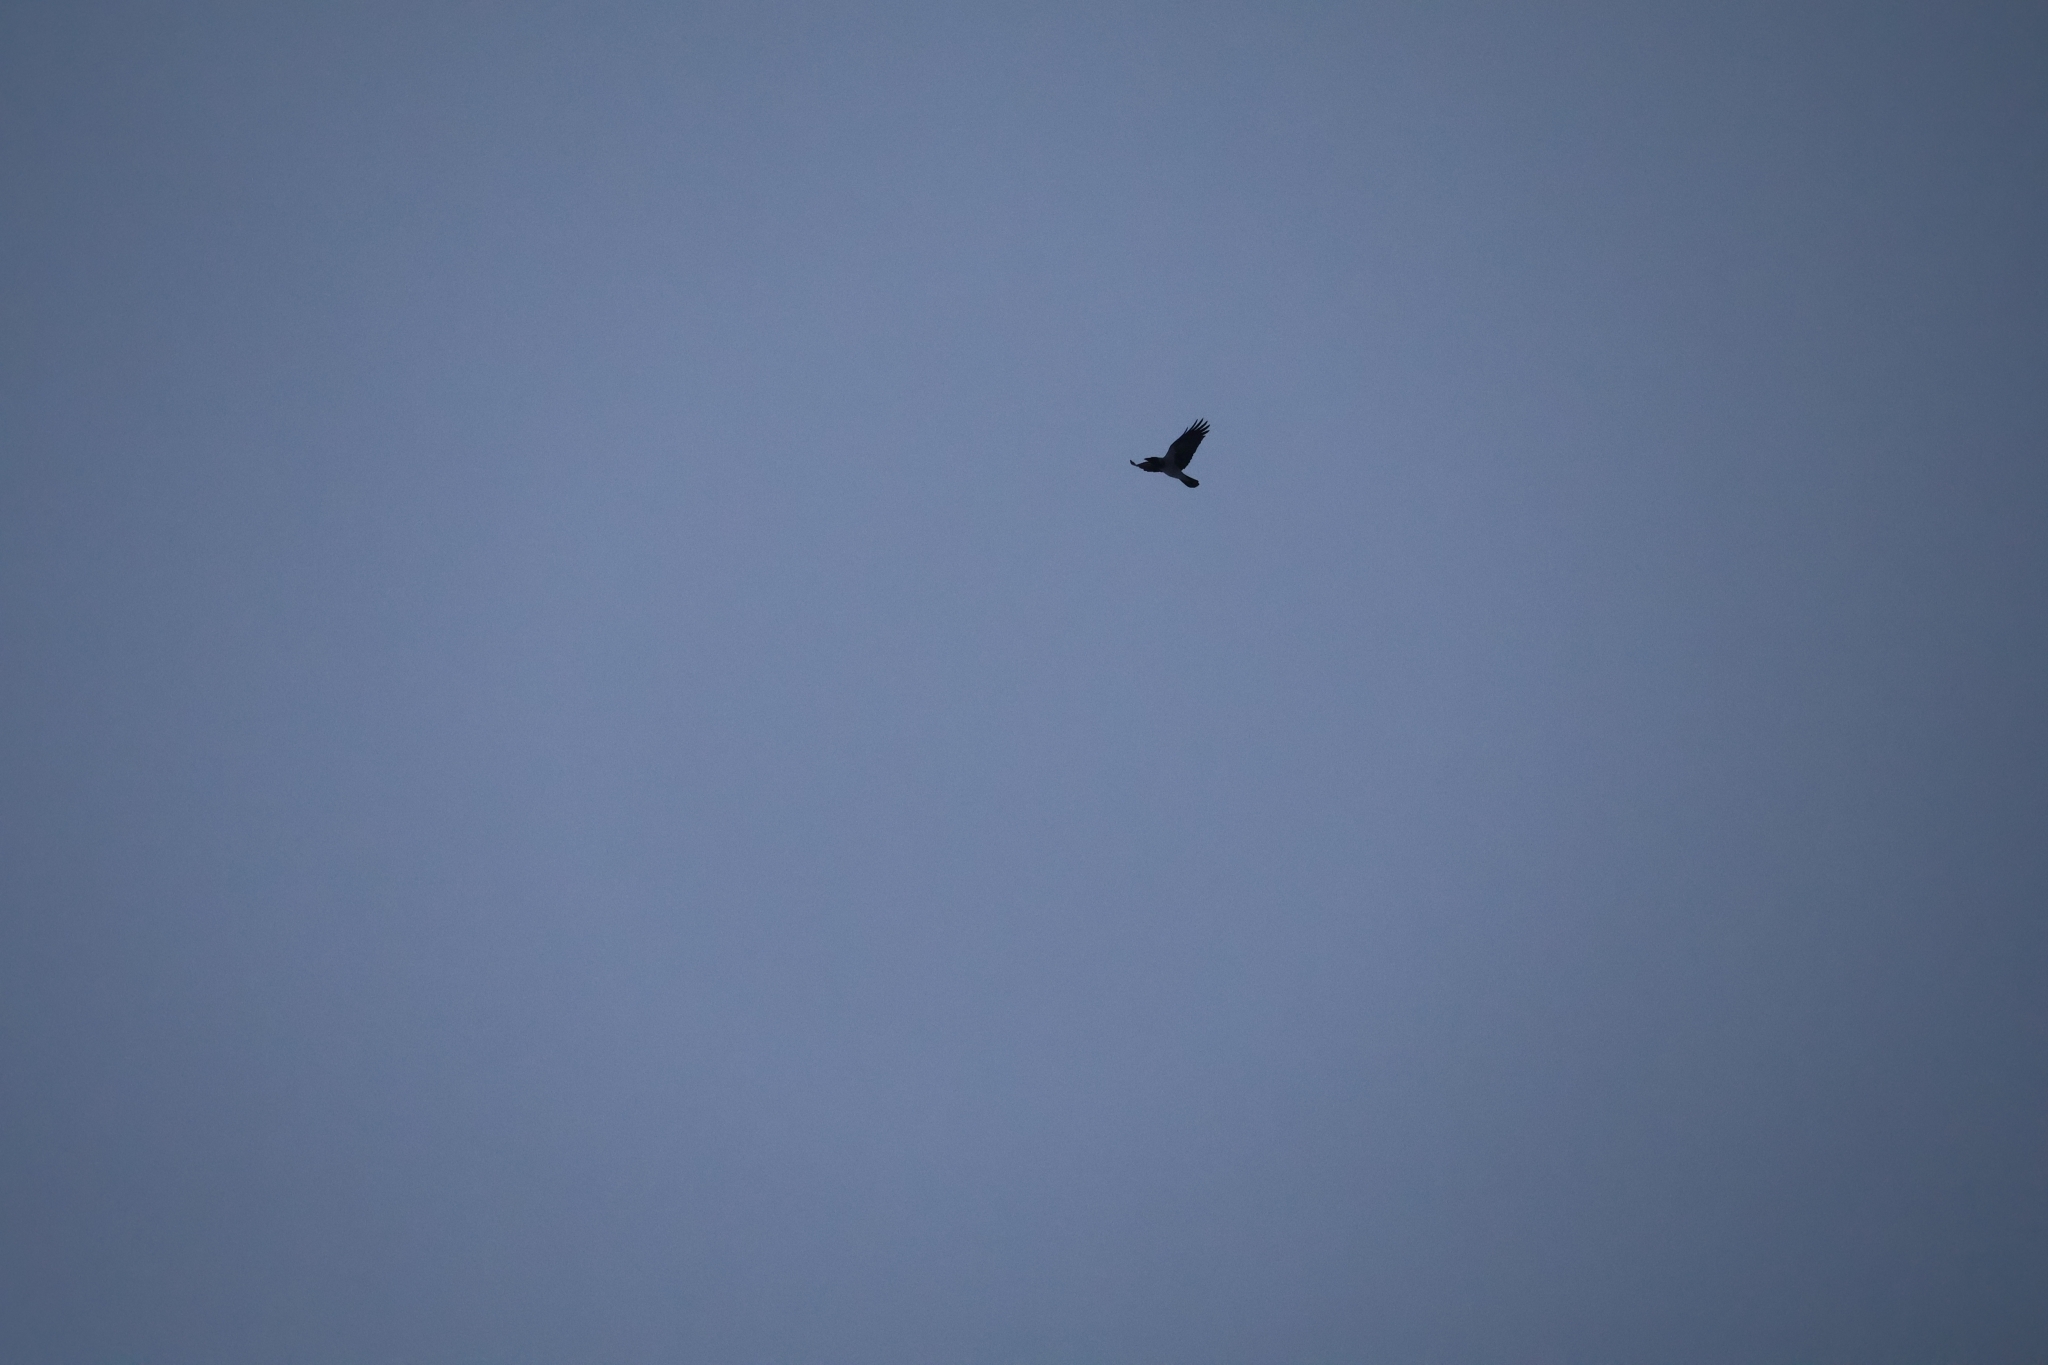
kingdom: Animalia
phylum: Chordata
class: Aves
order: Passeriformes
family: Corvidae
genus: Corvus
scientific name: Corvus cornix
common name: Hooded crow
